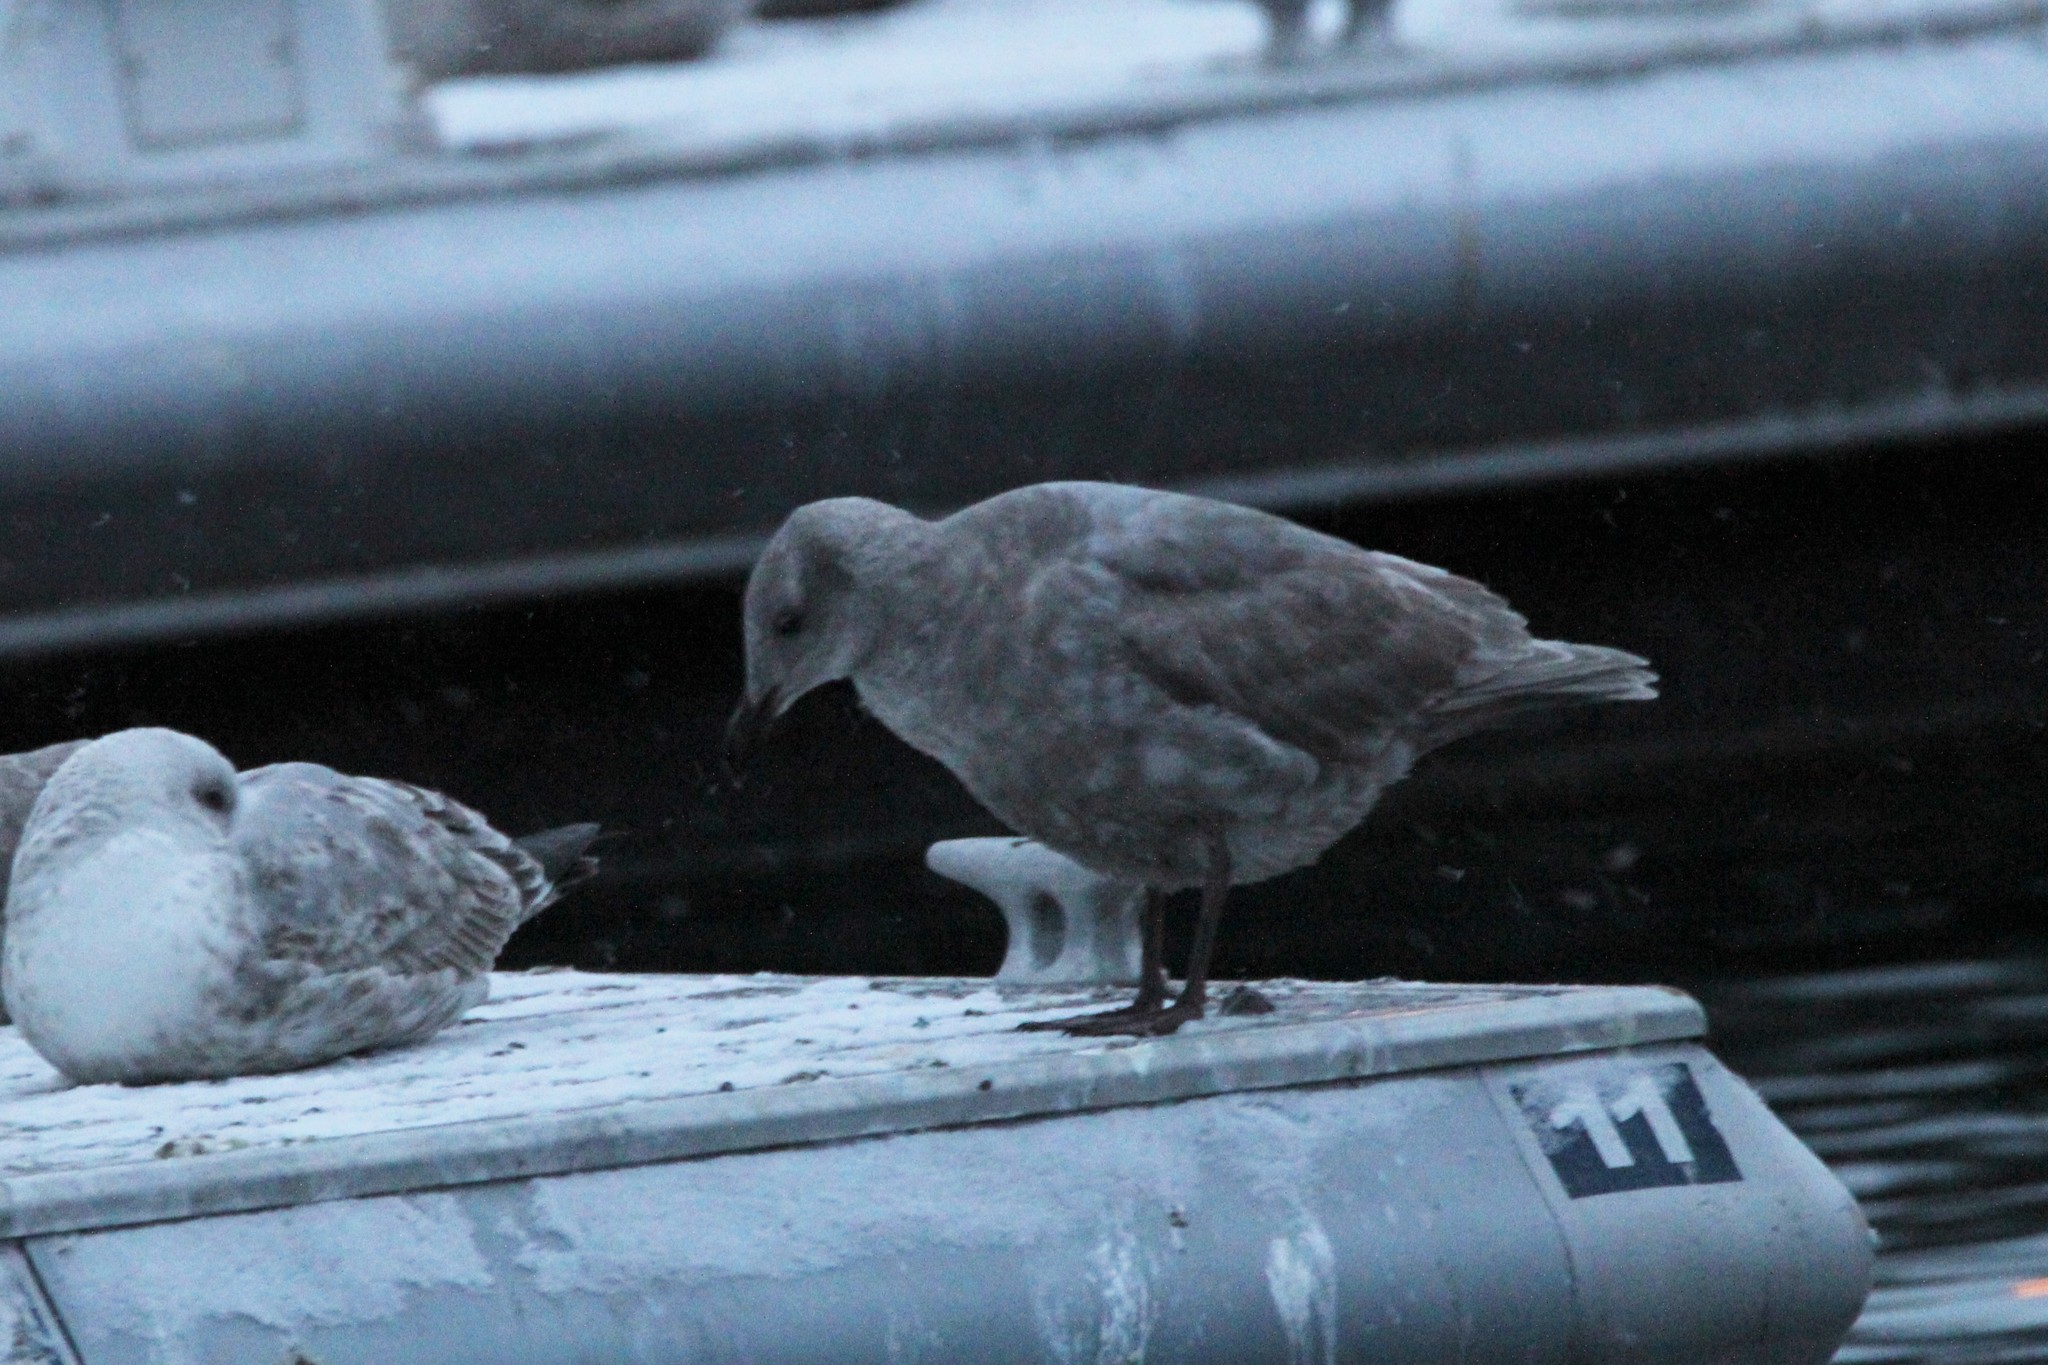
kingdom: Animalia
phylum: Chordata
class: Aves
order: Charadriiformes
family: Laridae
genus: Larus
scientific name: Larus glaucescens
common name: Glaucous-winged gull
